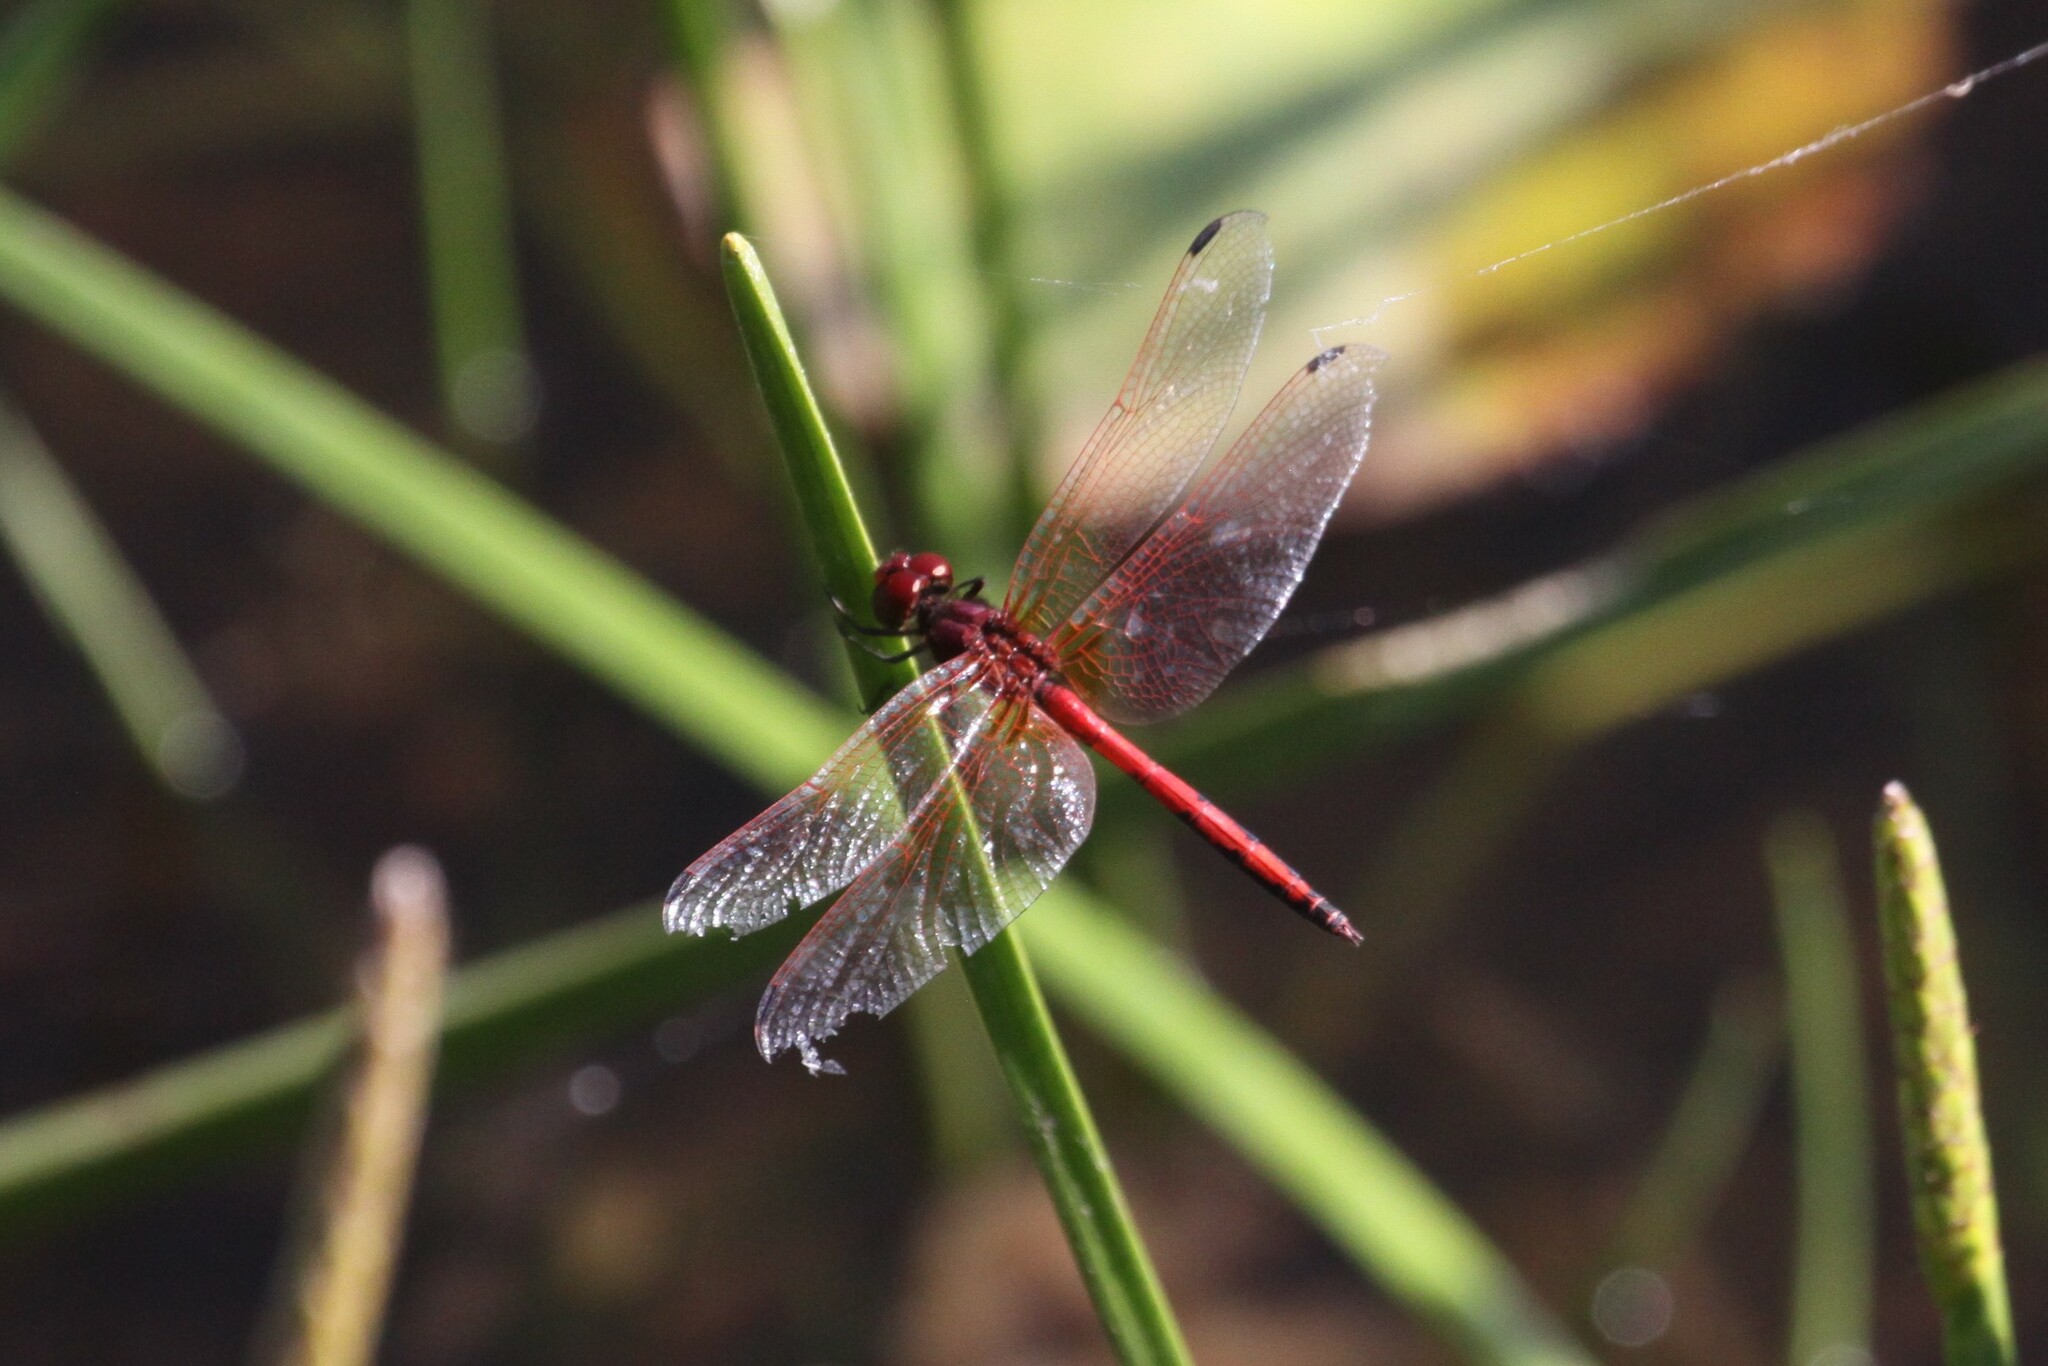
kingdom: Animalia
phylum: Arthropoda
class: Insecta
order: Odonata
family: Libellulidae
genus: Trithemis
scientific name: Trithemis arteriosa
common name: Red-veined dropwing
